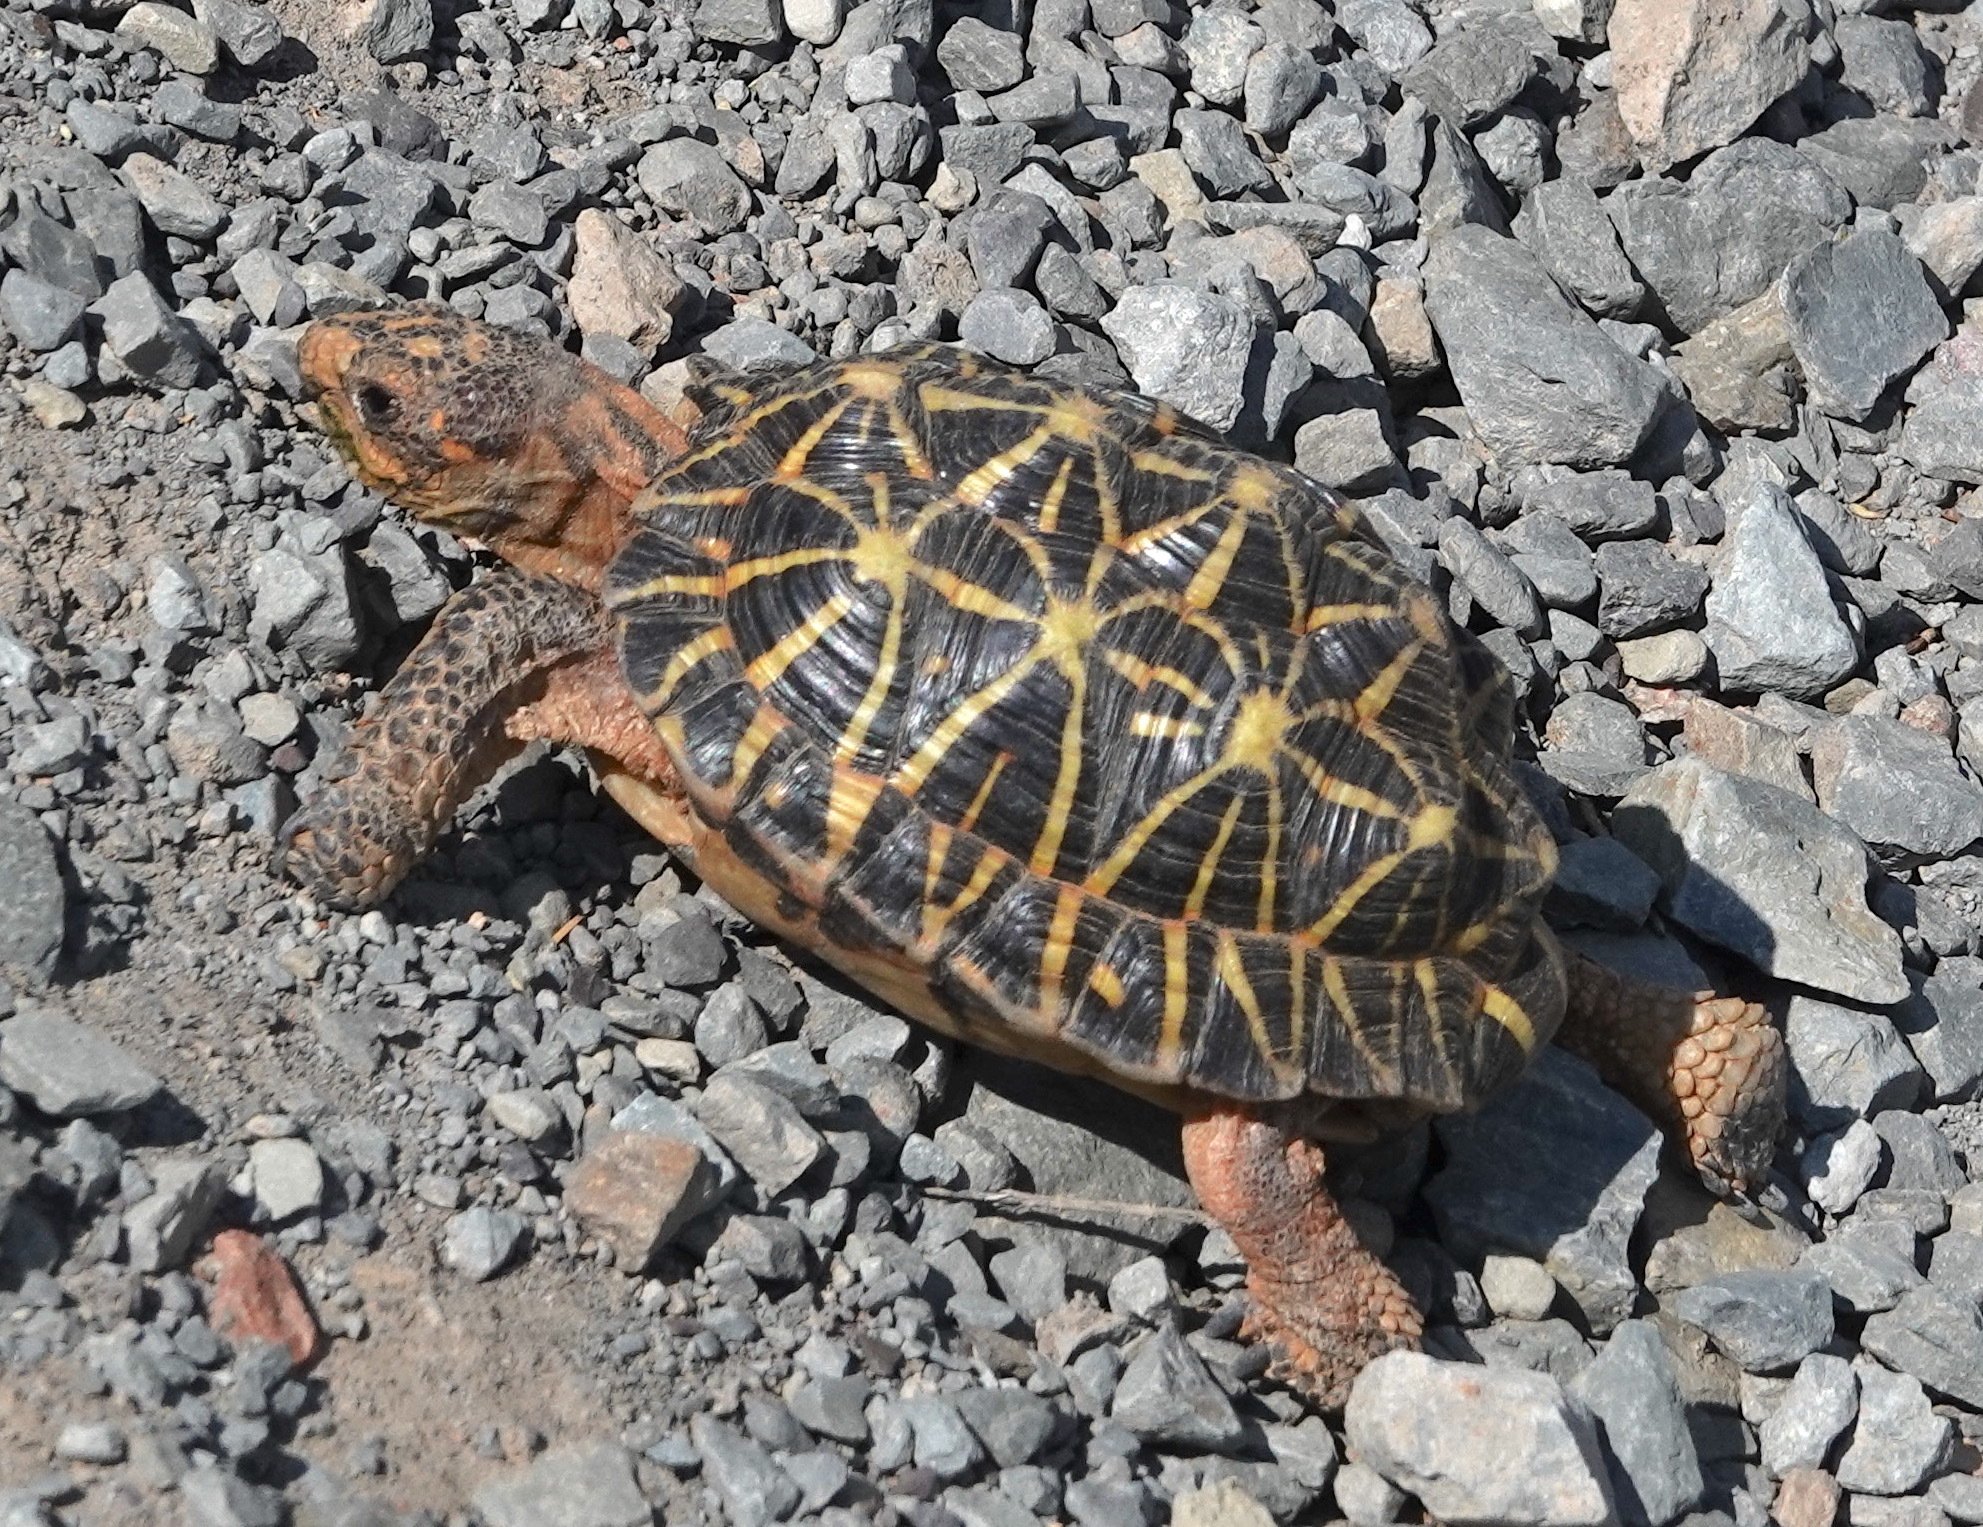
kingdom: Animalia
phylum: Chordata
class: Testudines
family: Testudinidae
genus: Psammobates
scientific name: Psammobates tentorius
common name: Tent tortoise
